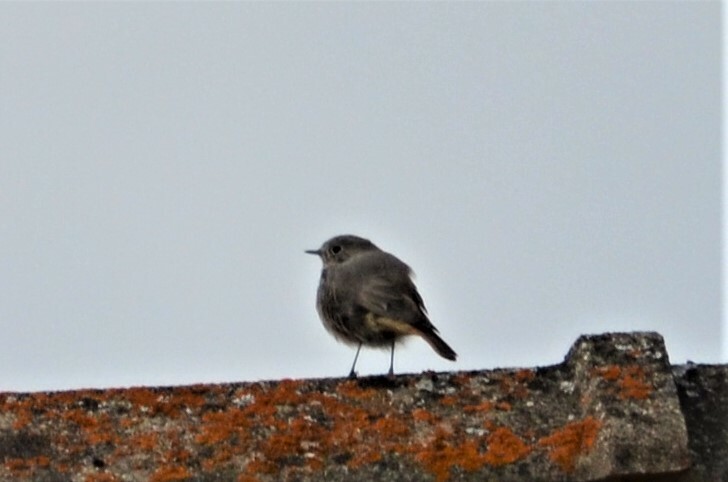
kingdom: Animalia
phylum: Chordata
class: Aves
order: Passeriformes
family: Muscicapidae
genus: Phoenicurus
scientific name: Phoenicurus ochruros
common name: Black redstart
